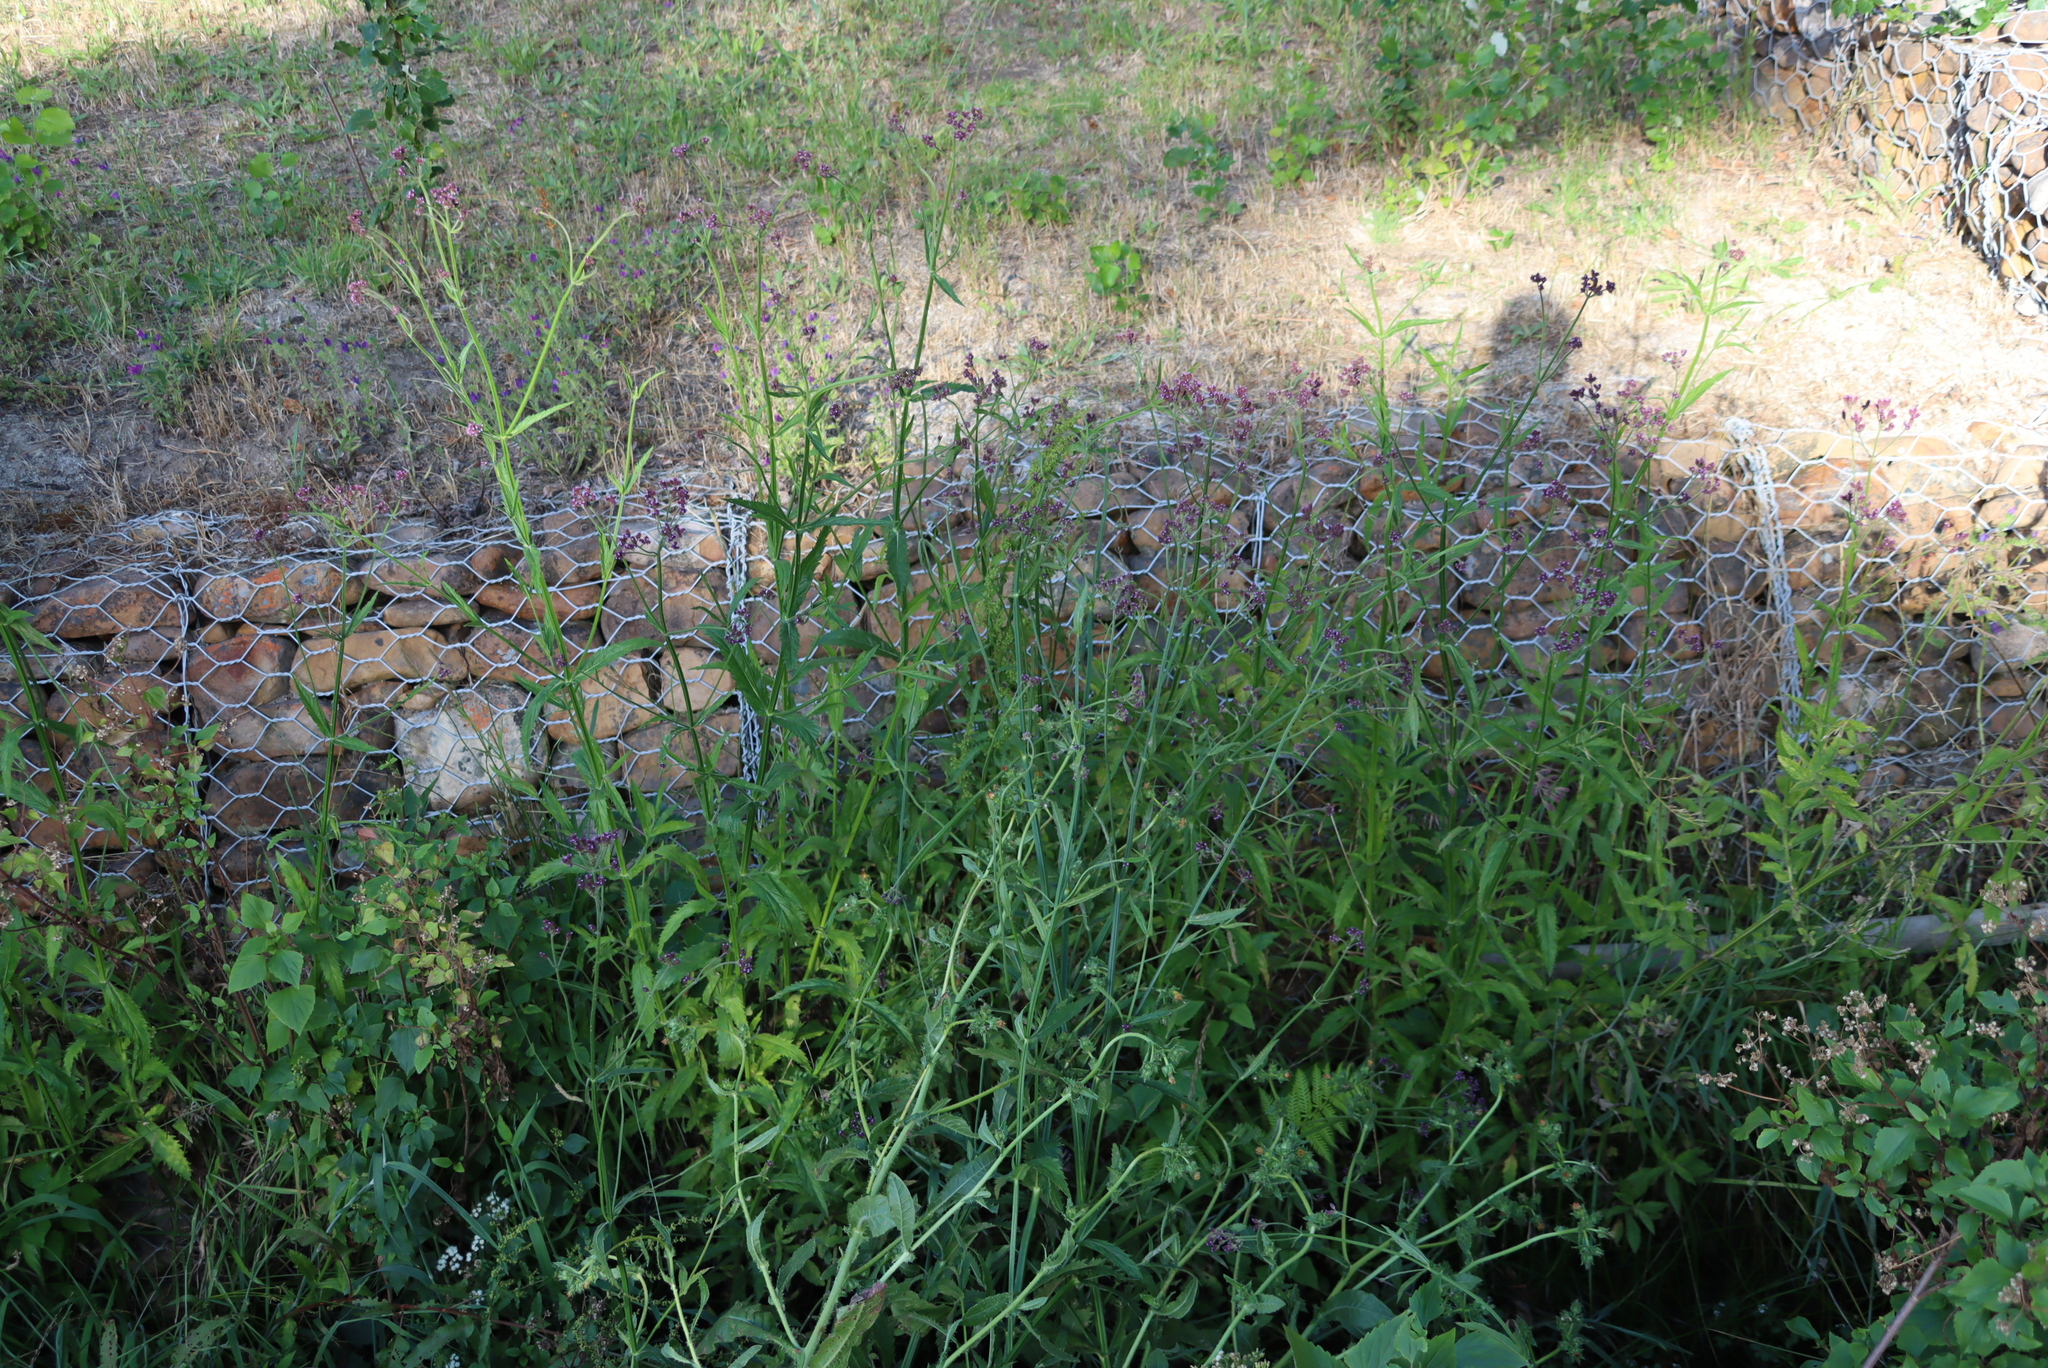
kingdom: Plantae
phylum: Tracheophyta
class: Magnoliopsida
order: Lamiales
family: Verbenaceae
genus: Verbena
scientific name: Verbena bonariensis
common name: Purpletop vervain
